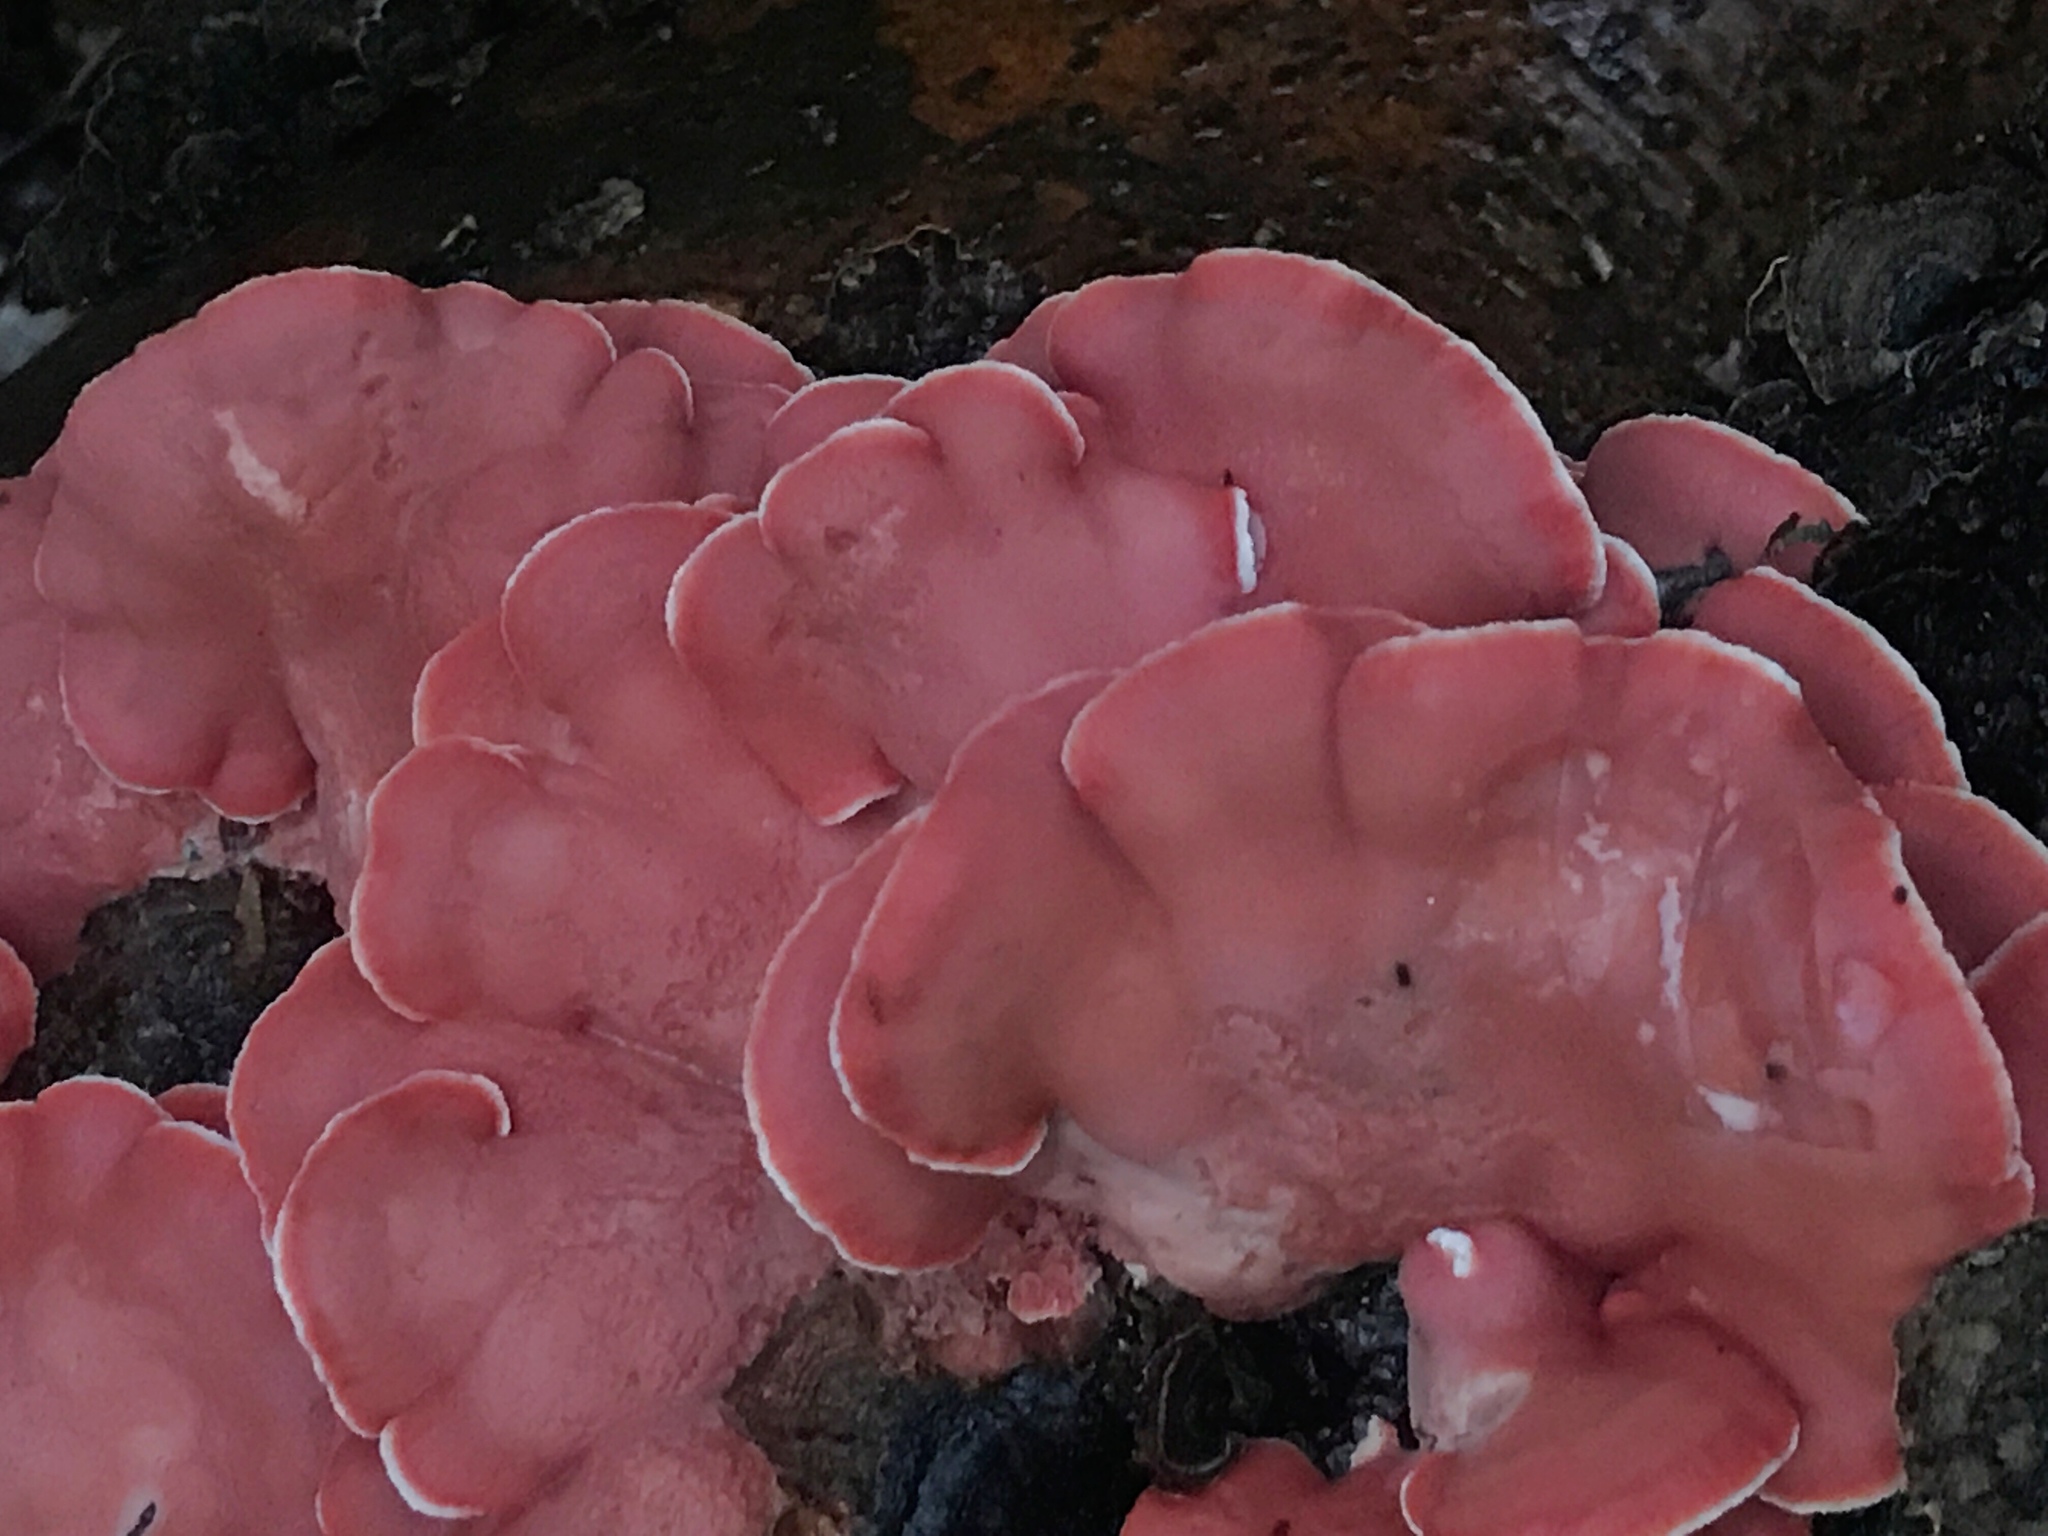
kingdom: Fungi
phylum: Basidiomycota
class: Agaricomycetes
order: Polyporales
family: Irpicaceae
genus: Byssomerulius
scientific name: Byssomerulius incarnatus
